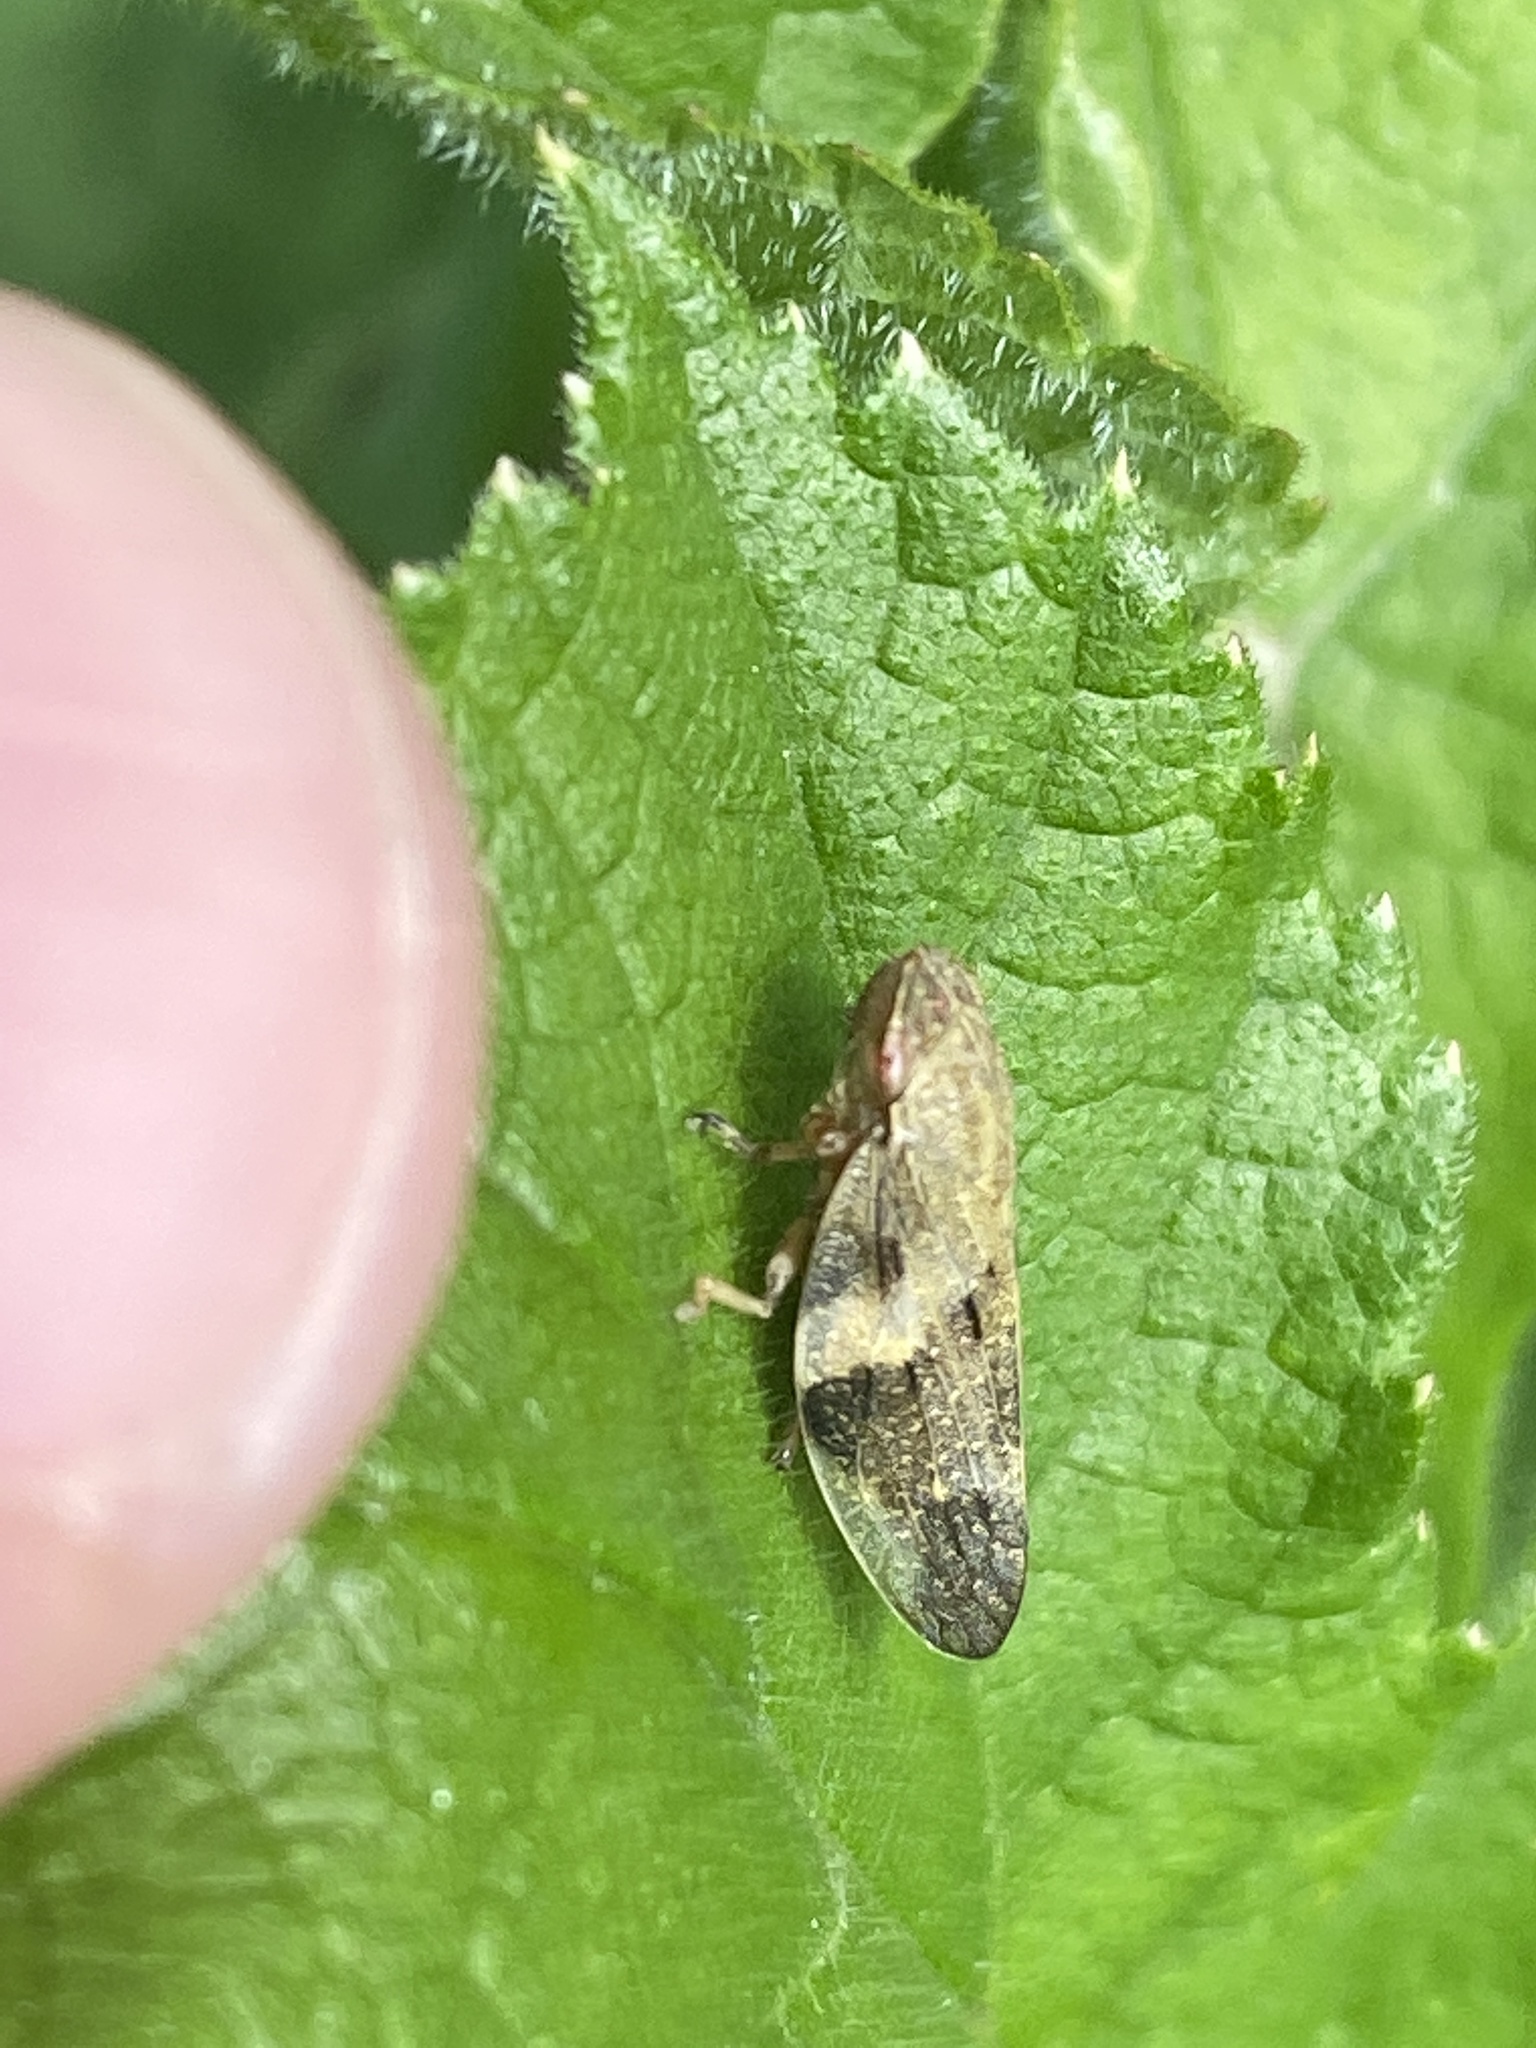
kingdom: Animalia
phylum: Arthropoda
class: Insecta
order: Hemiptera
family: Aphrophoridae
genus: Aphrophora
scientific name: Aphrophora alni
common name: European alder spittlebug
